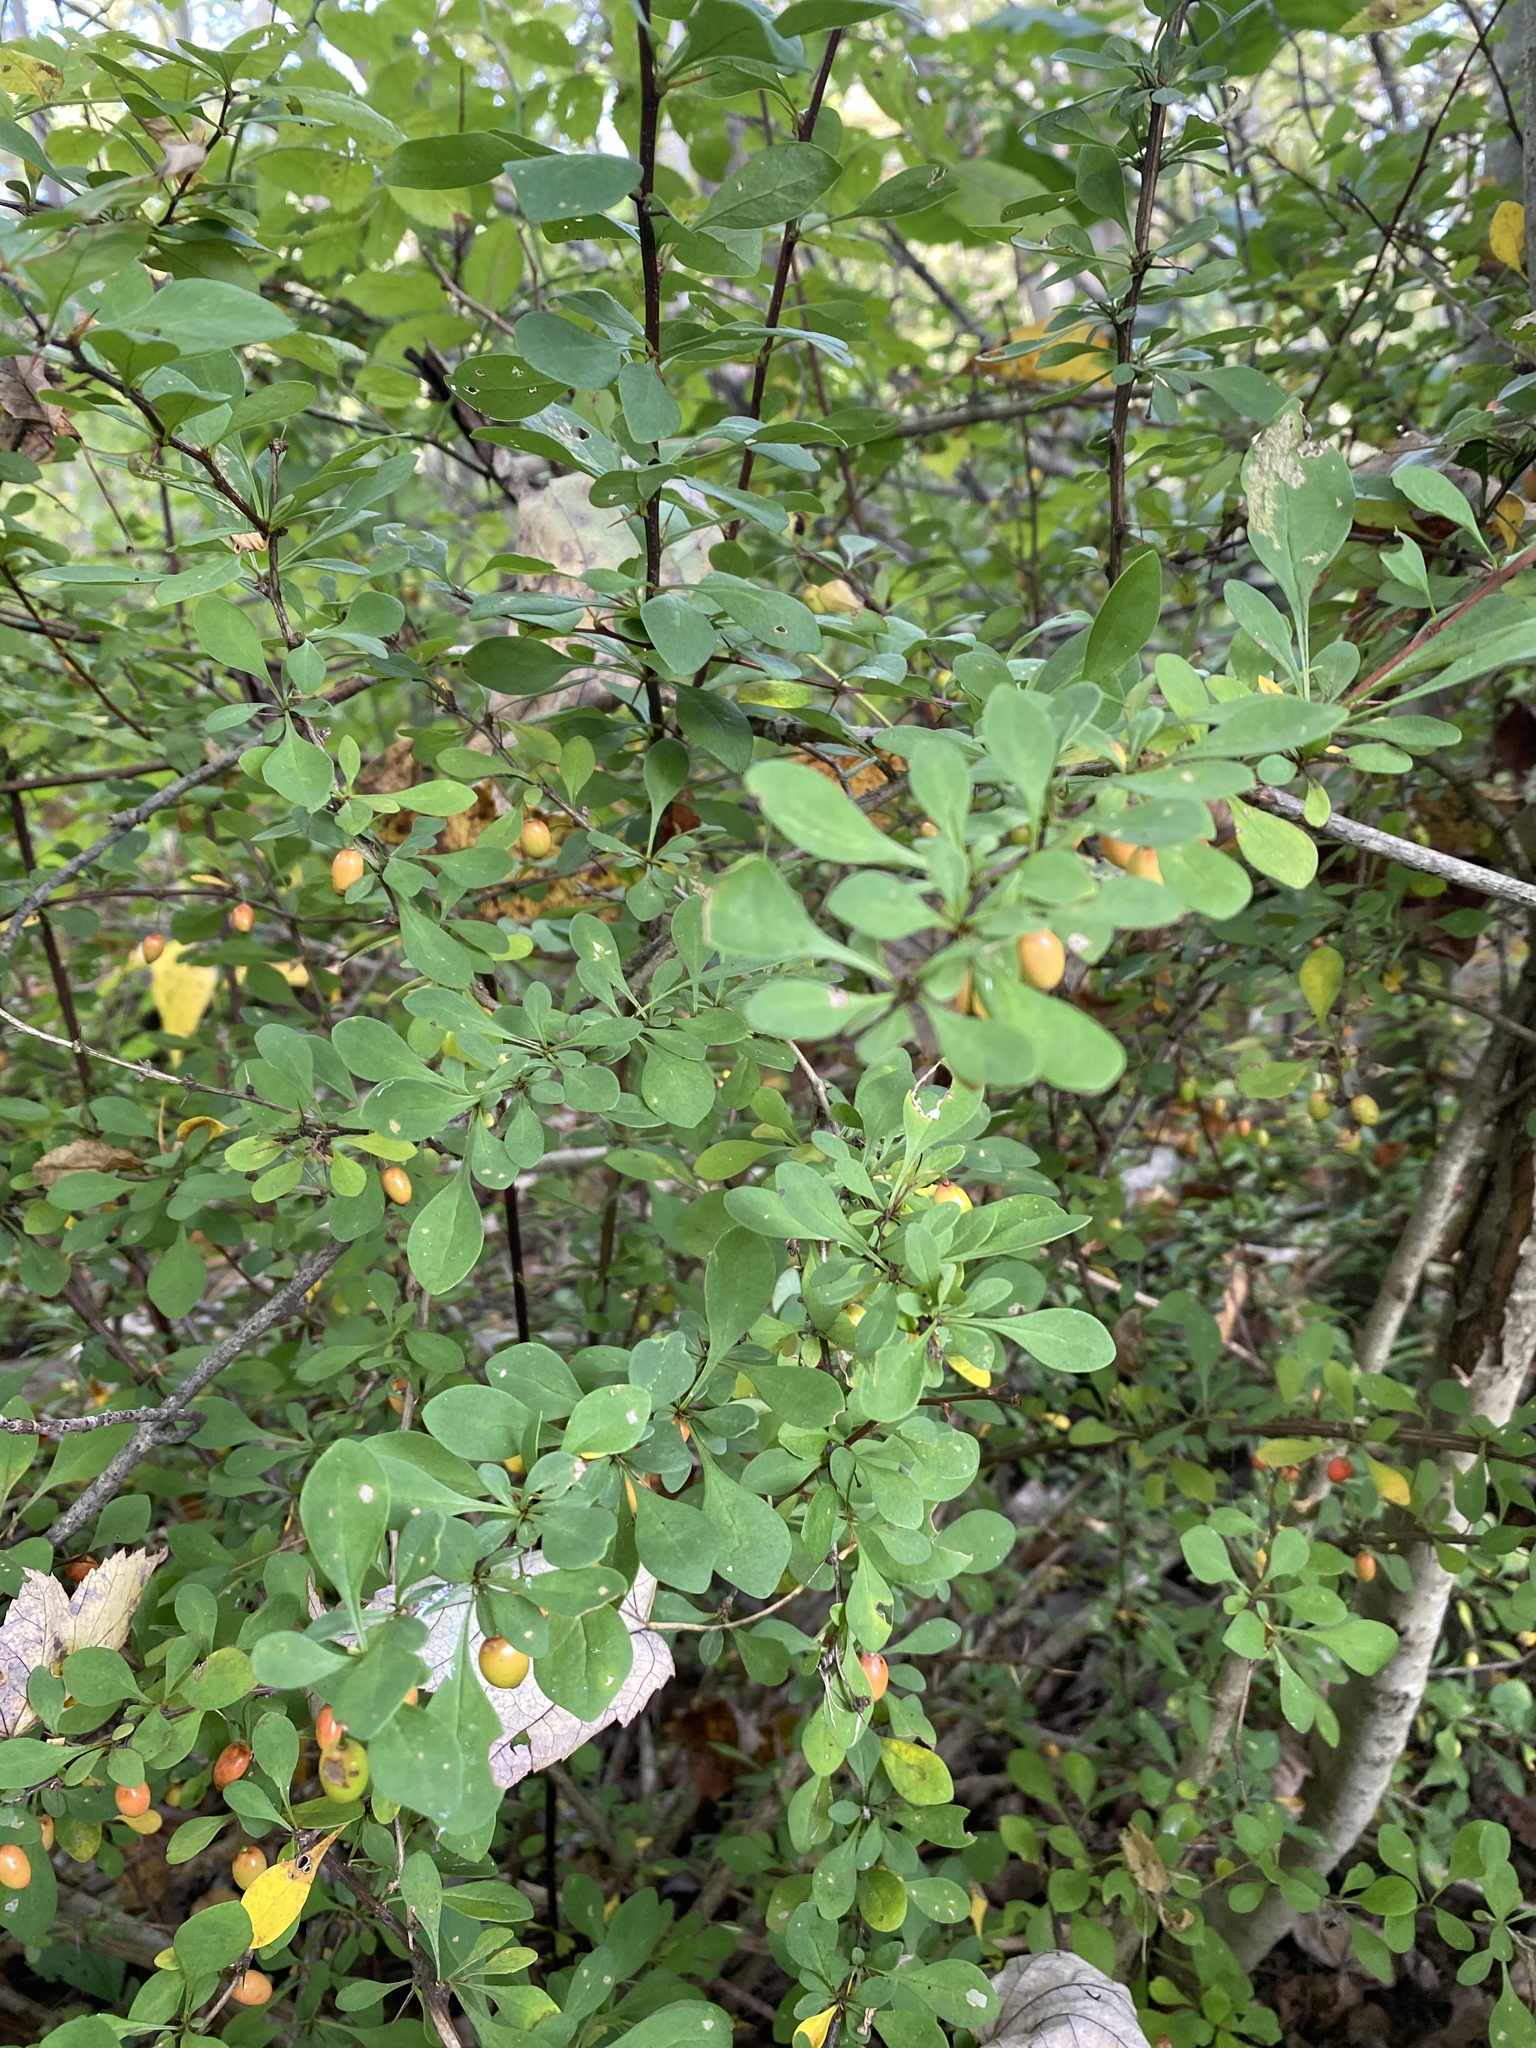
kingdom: Plantae
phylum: Tracheophyta
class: Magnoliopsida
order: Ranunculales
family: Berberidaceae
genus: Berberis
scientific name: Berberis thunbergii
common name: Japanese barberry
